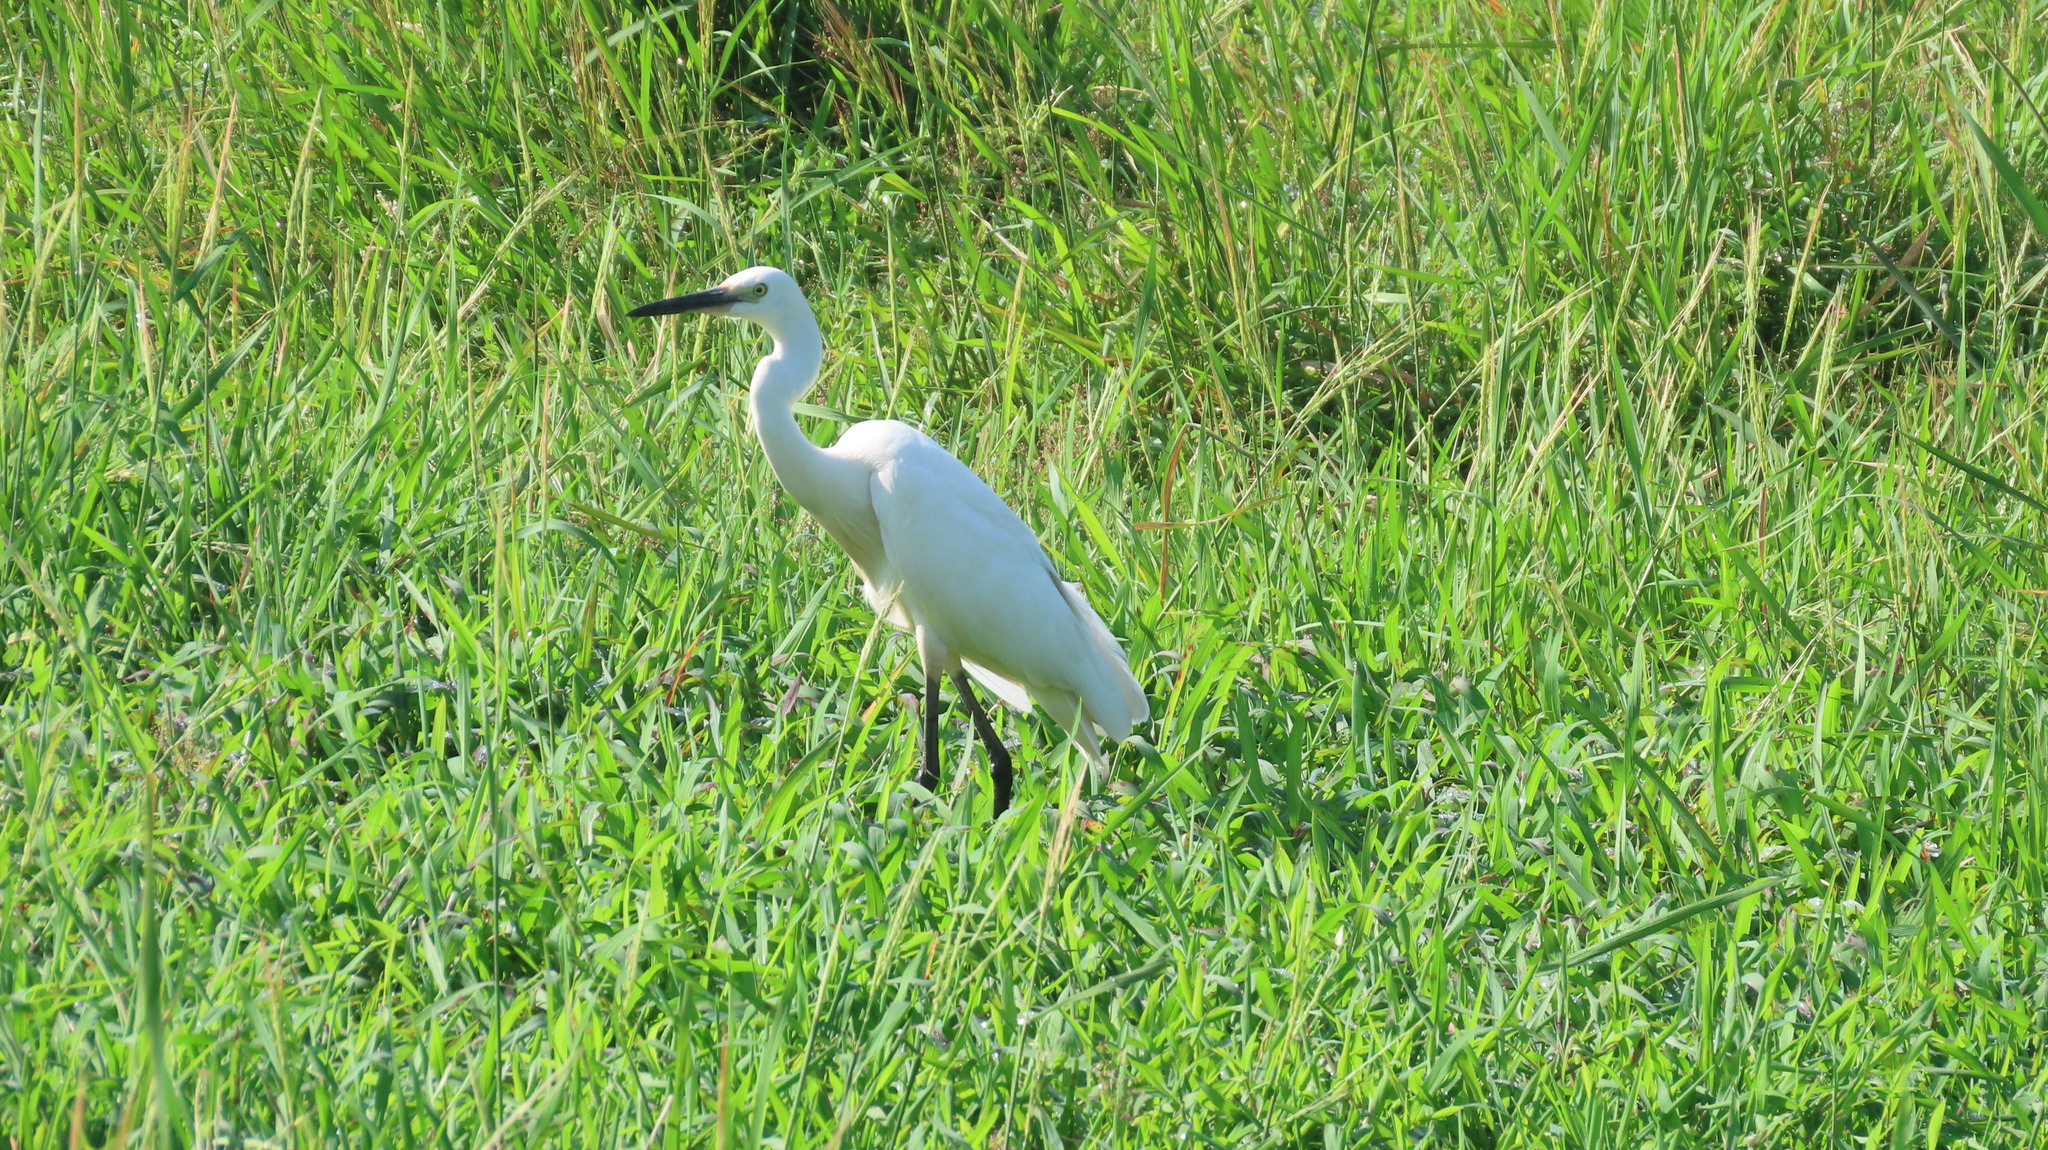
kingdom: Animalia
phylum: Chordata
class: Aves
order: Pelecaniformes
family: Ardeidae
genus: Egretta
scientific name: Egretta garzetta
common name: Little egret
